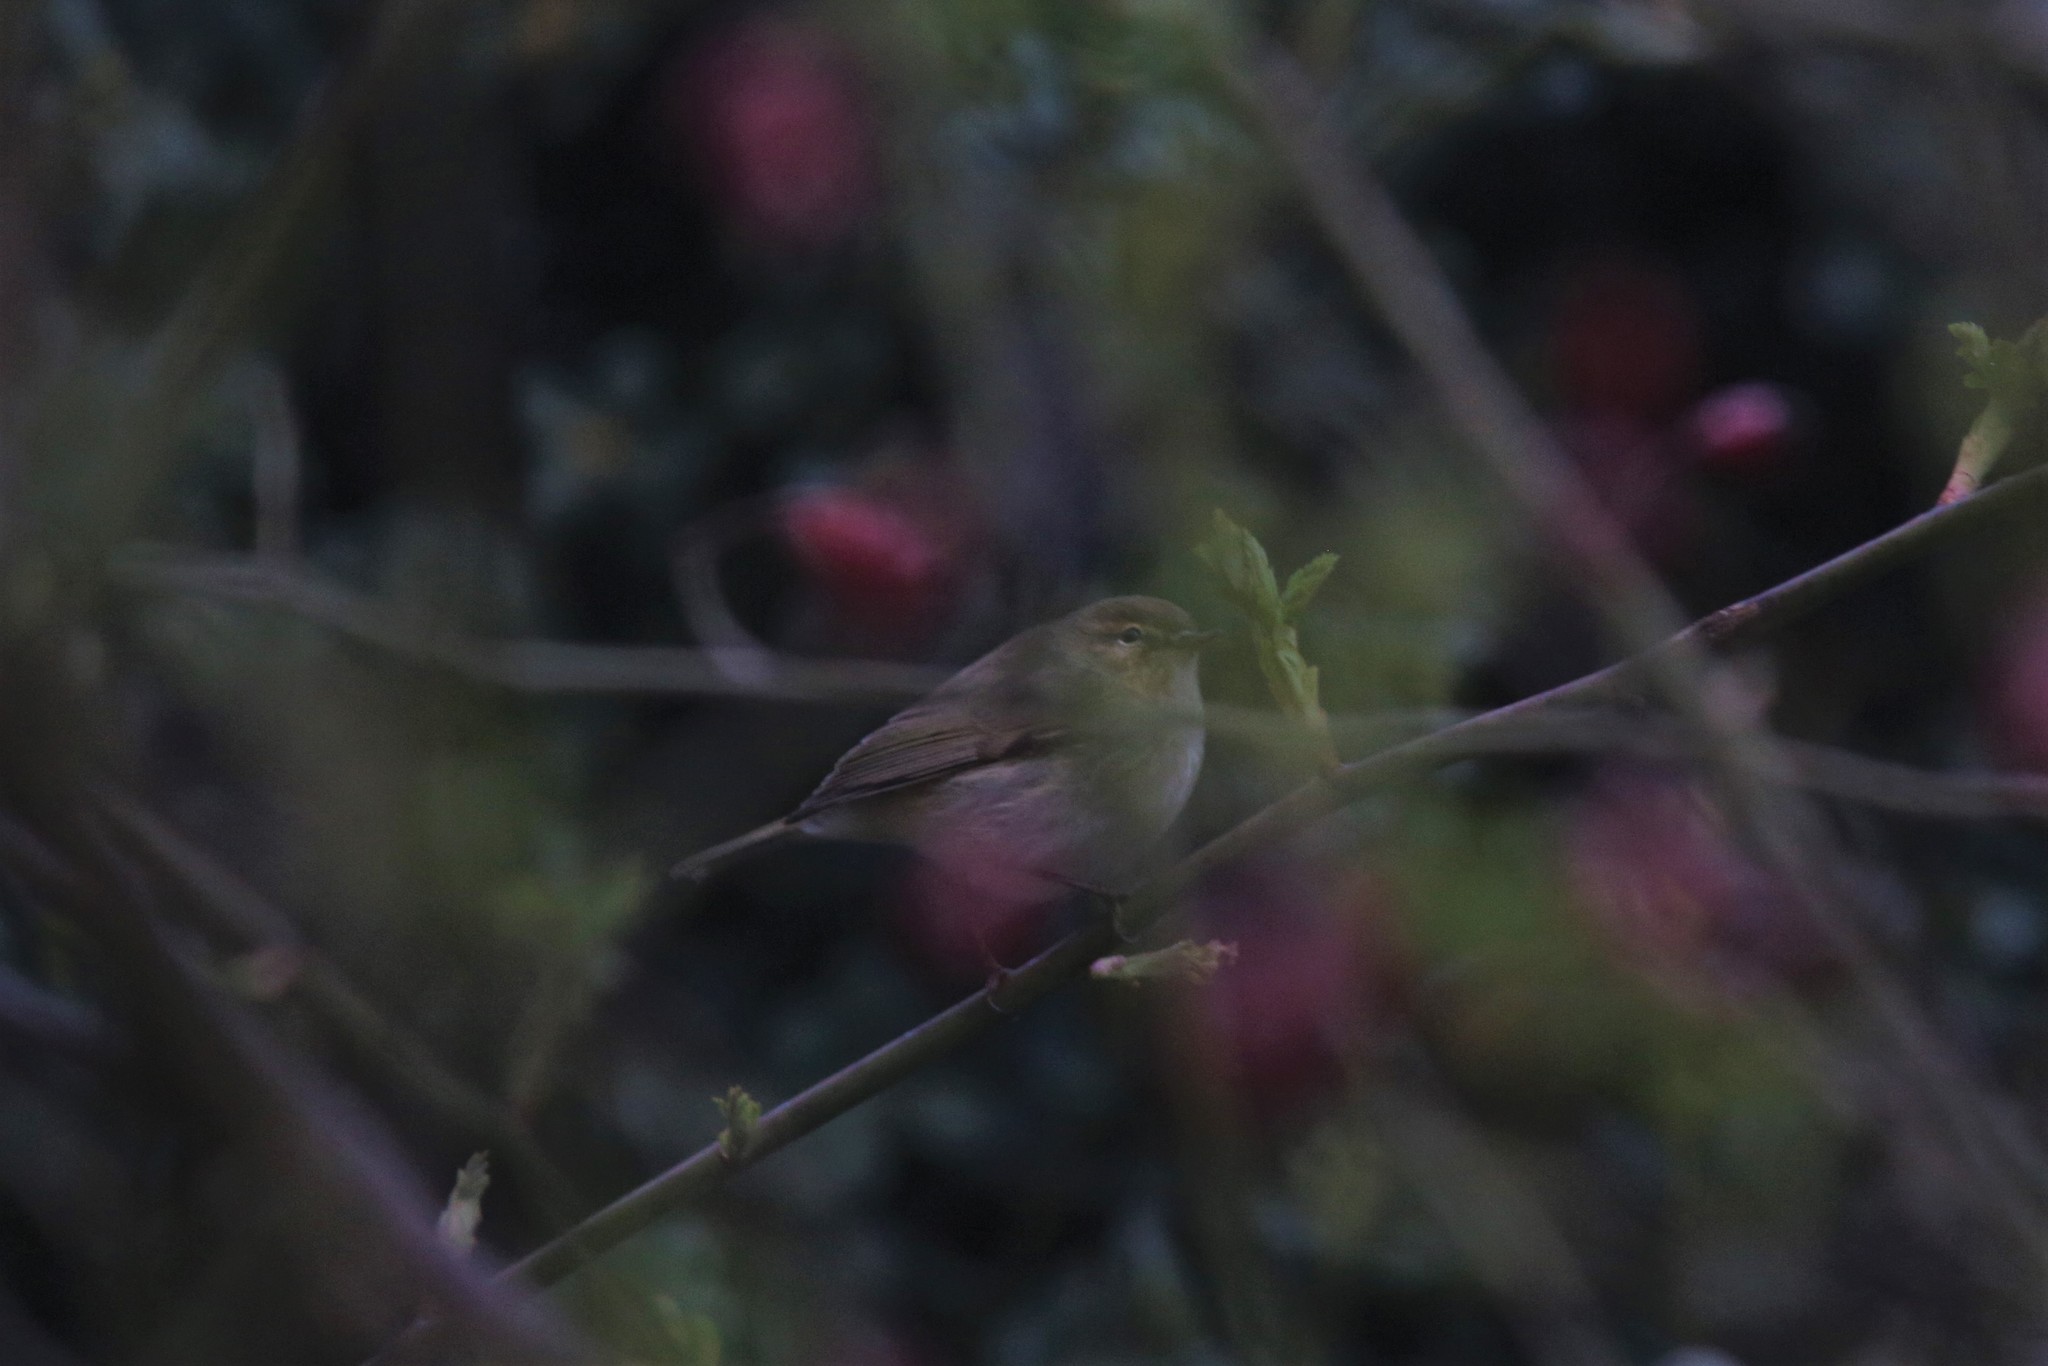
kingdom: Animalia
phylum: Chordata
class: Aves
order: Passeriformes
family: Phylloscopidae
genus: Phylloscopus
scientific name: Phylloscopus collybita
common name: Common chiffchaff
